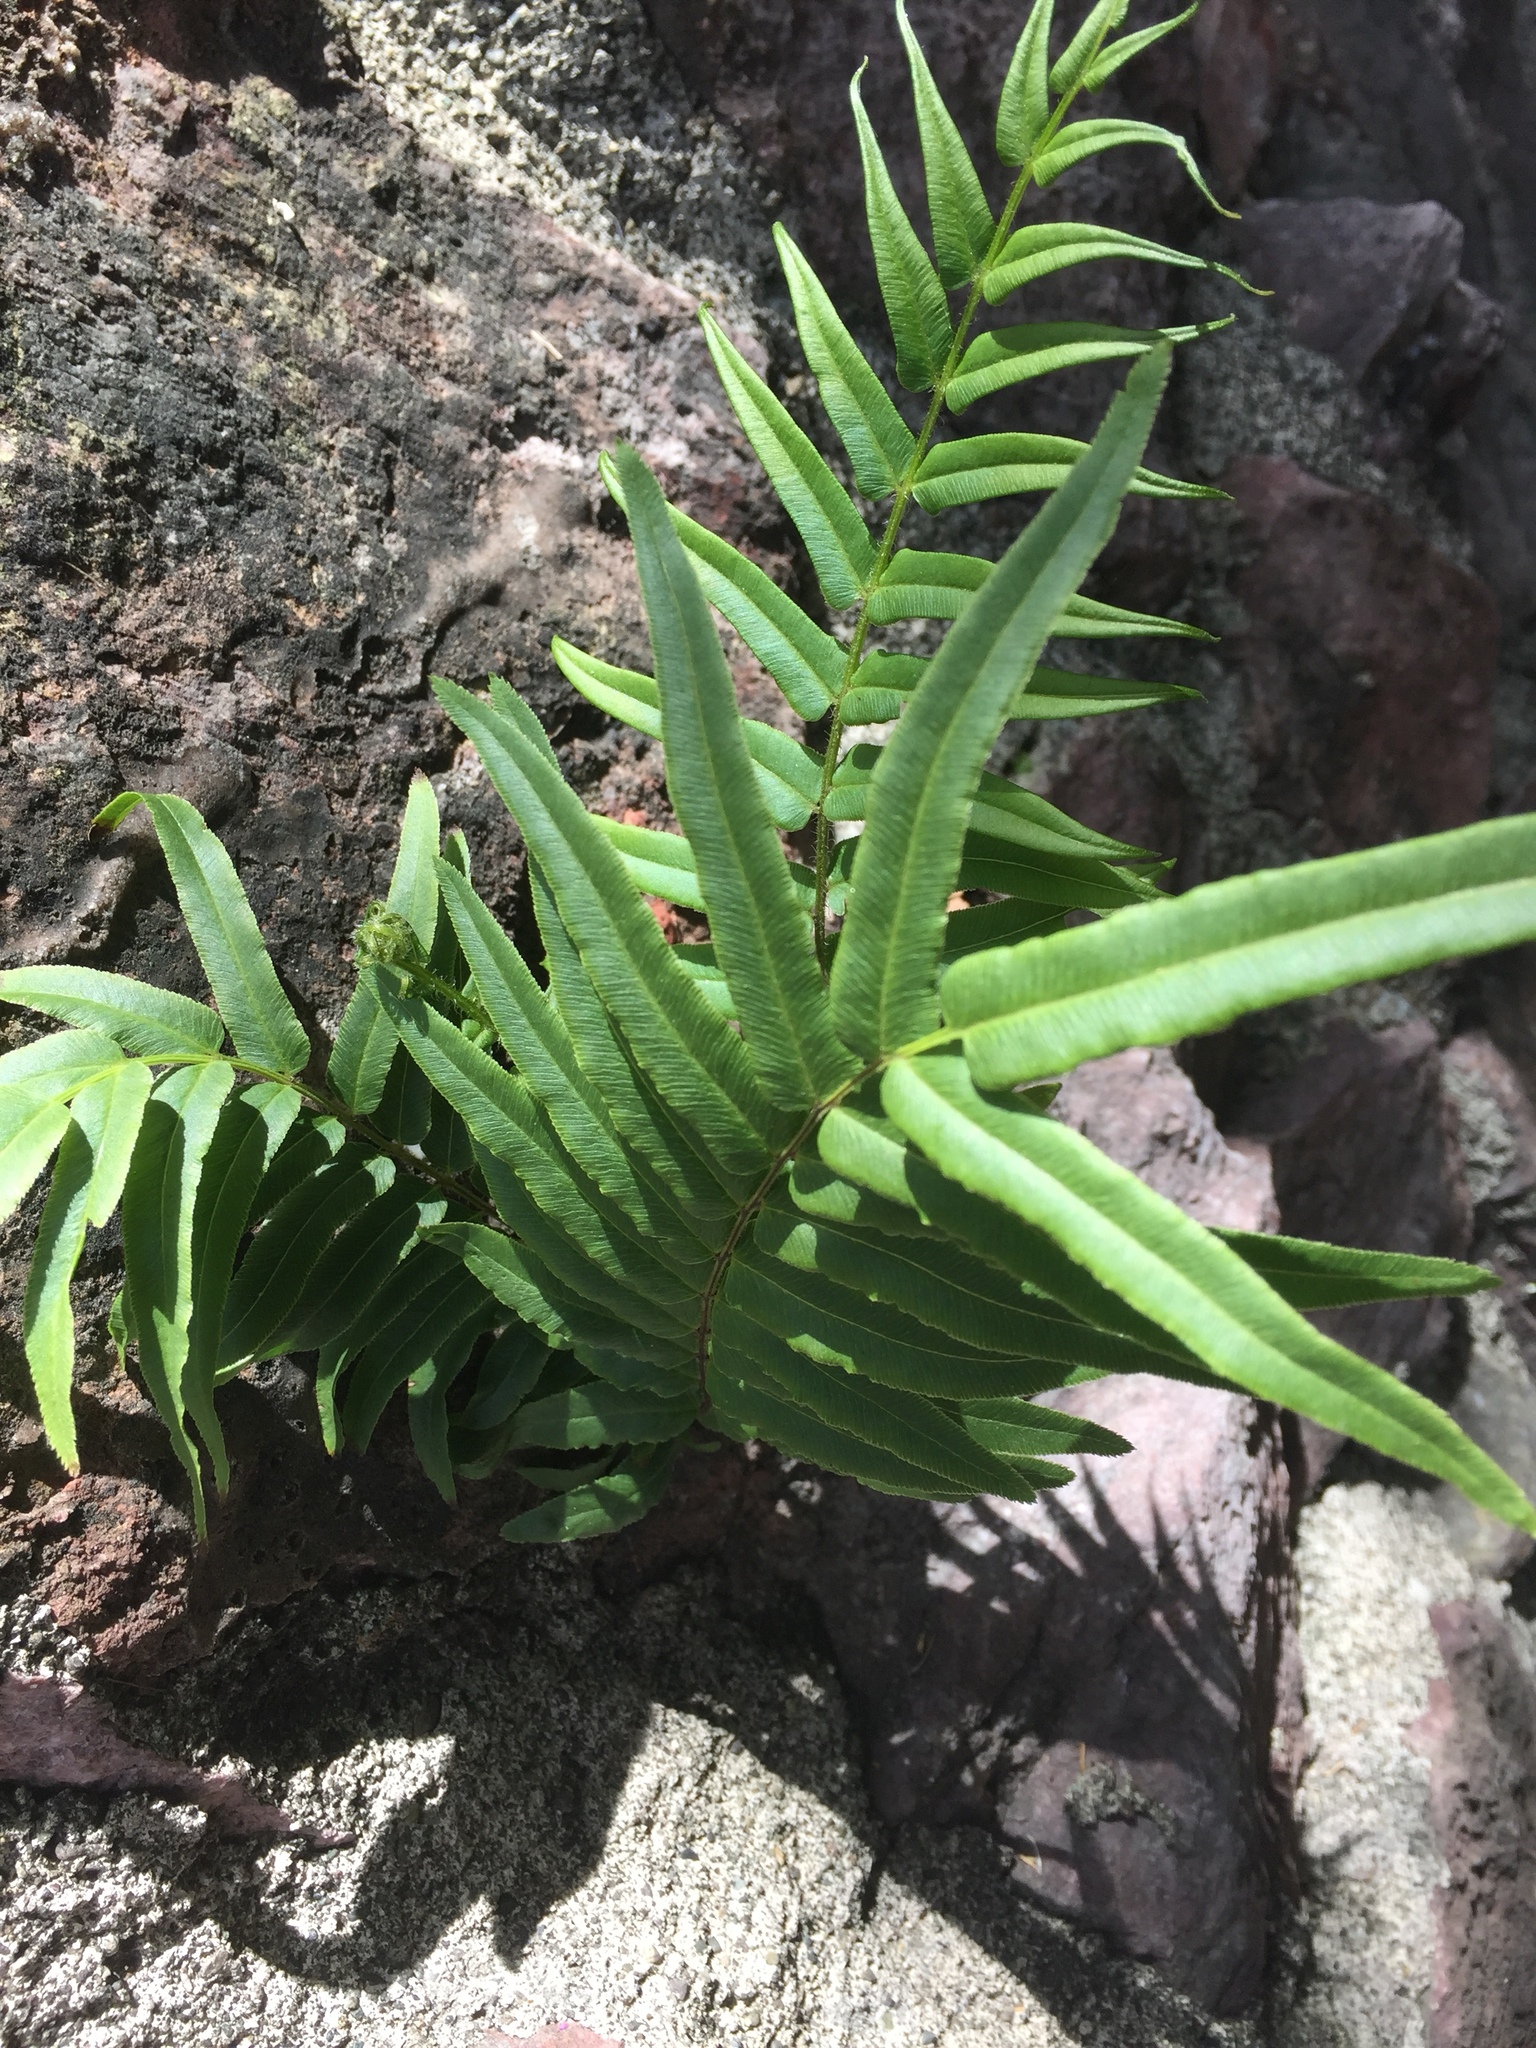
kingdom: Plantae
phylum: Tracheophyta
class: Polypodiopsida
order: Polypodiales
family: Pteridaceae
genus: Pteris
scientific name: Pteris vittata
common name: Ladder brake
